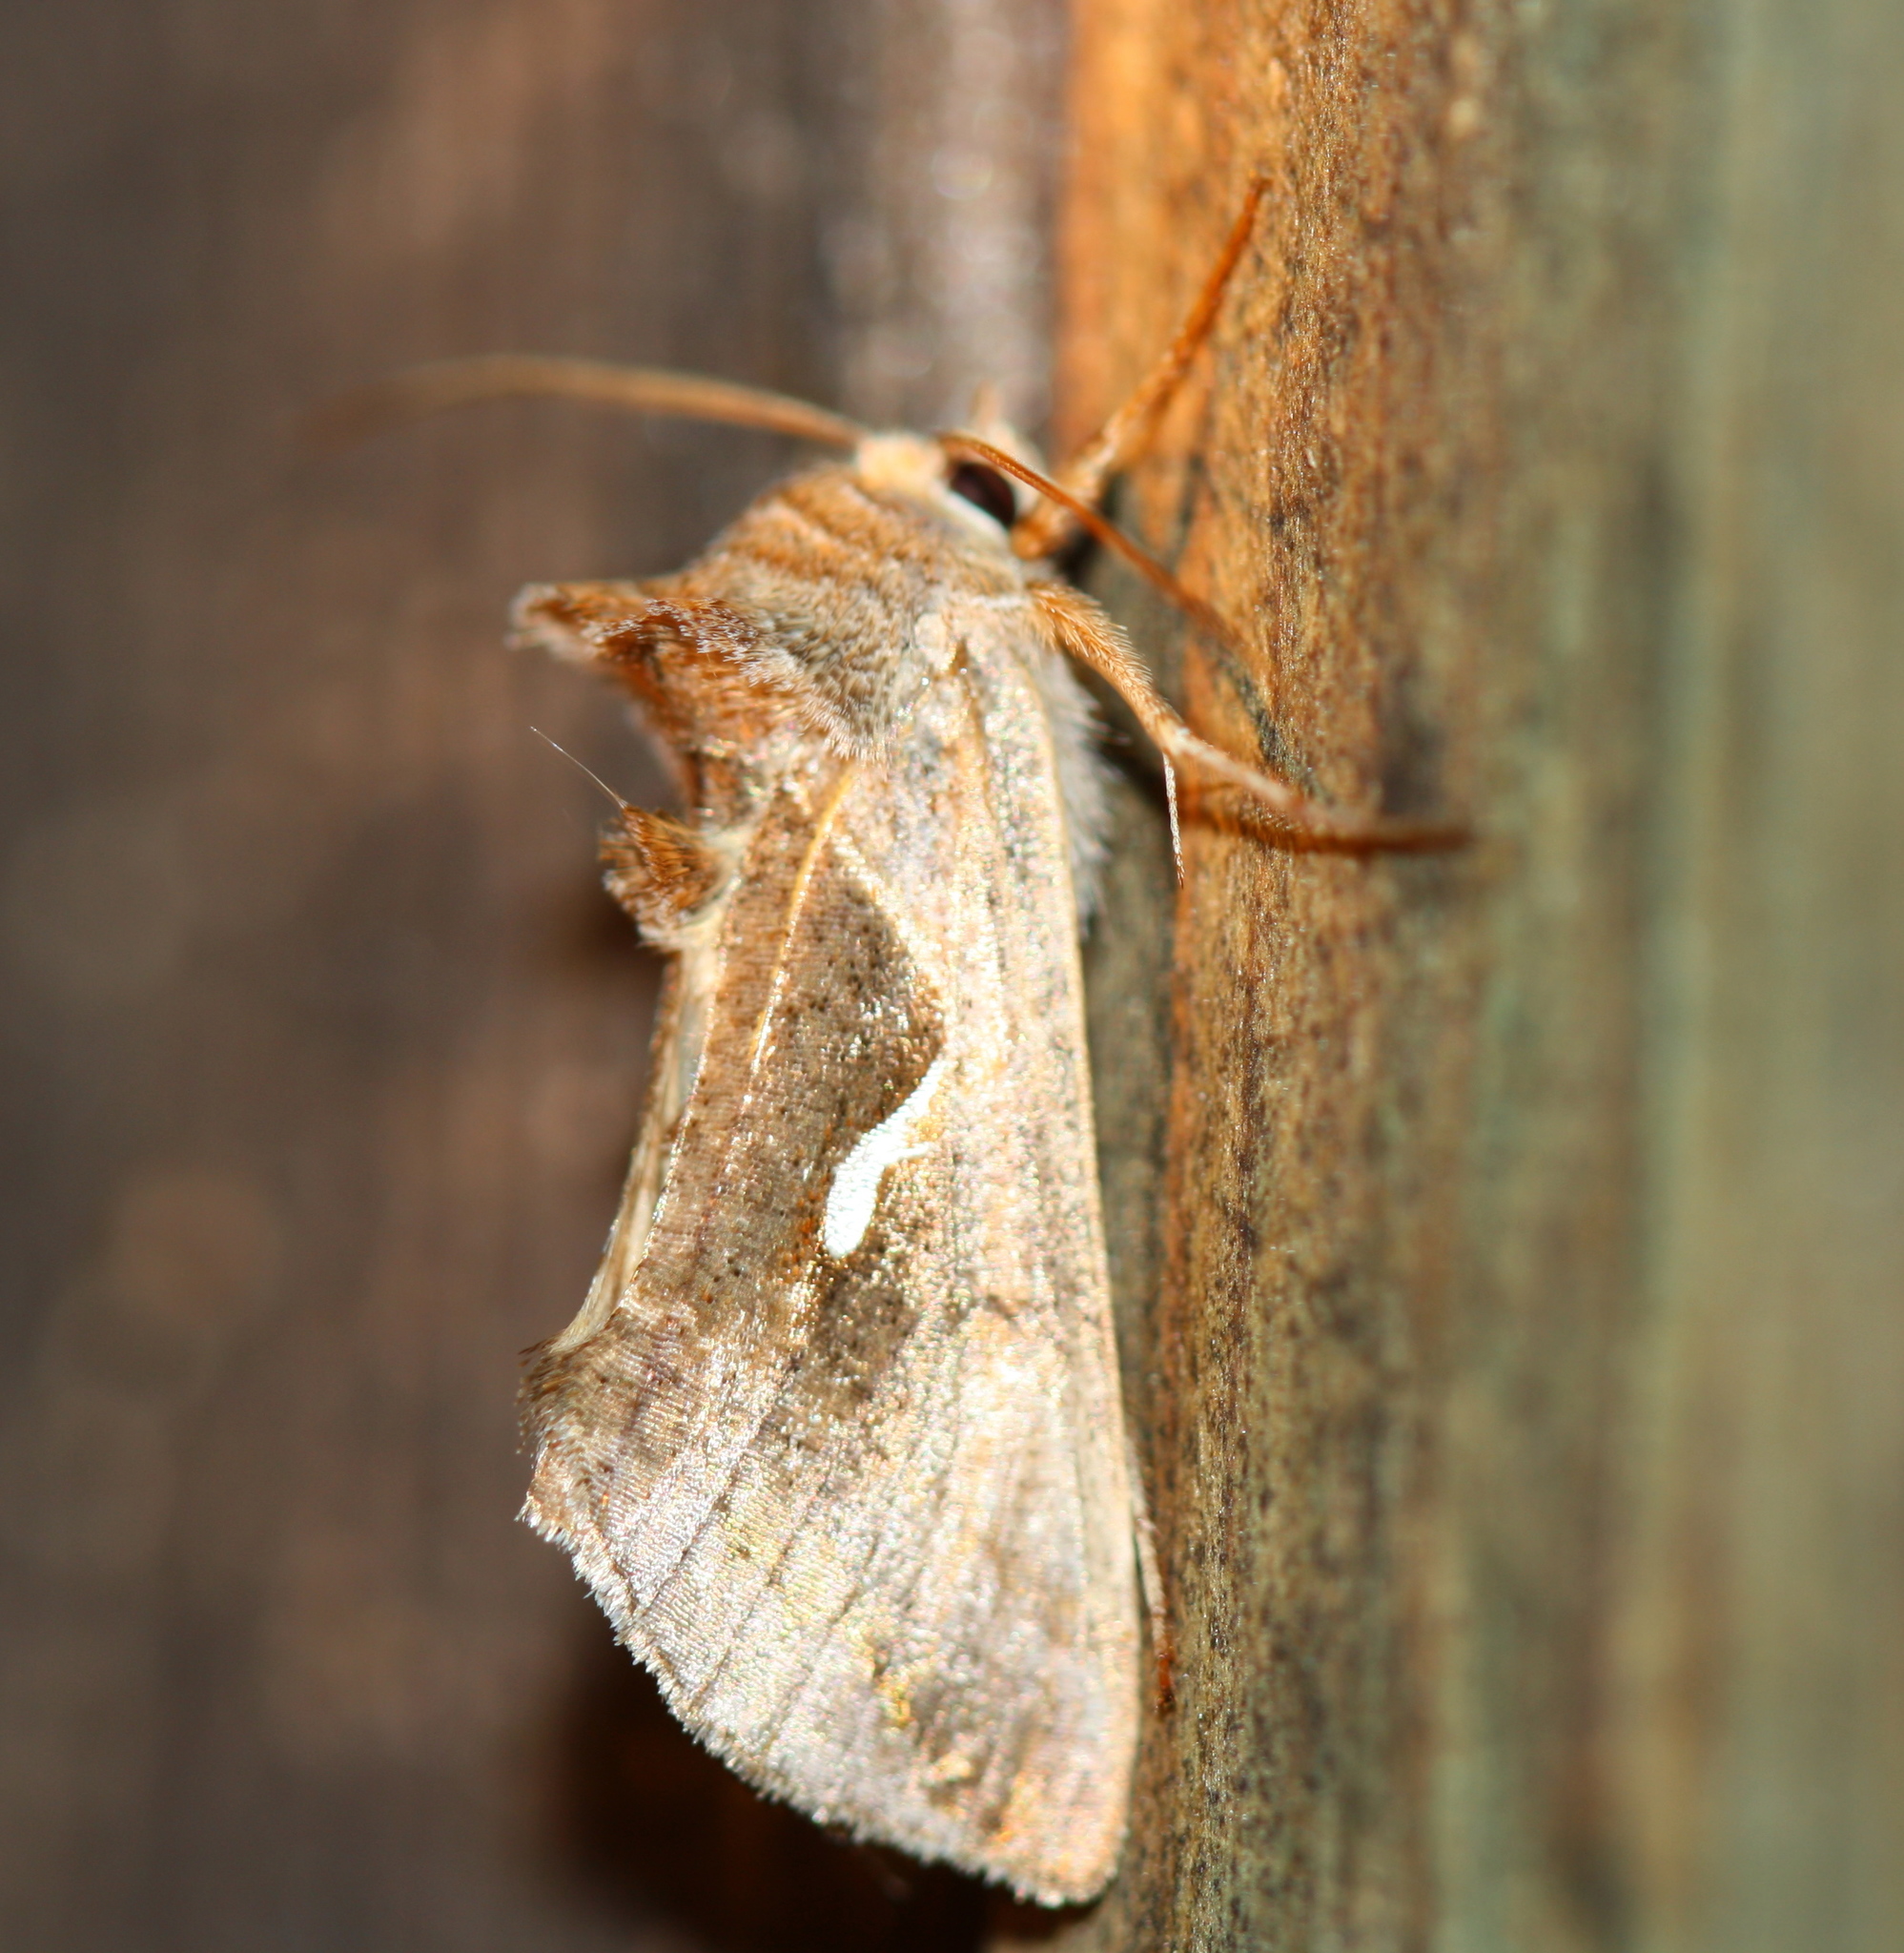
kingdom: Animalia
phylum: Arthropoda
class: Insecta
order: Lepidoptera
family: Noctuidae
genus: Anagrapha
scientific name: Anagrapha falcifera
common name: Celery looper
